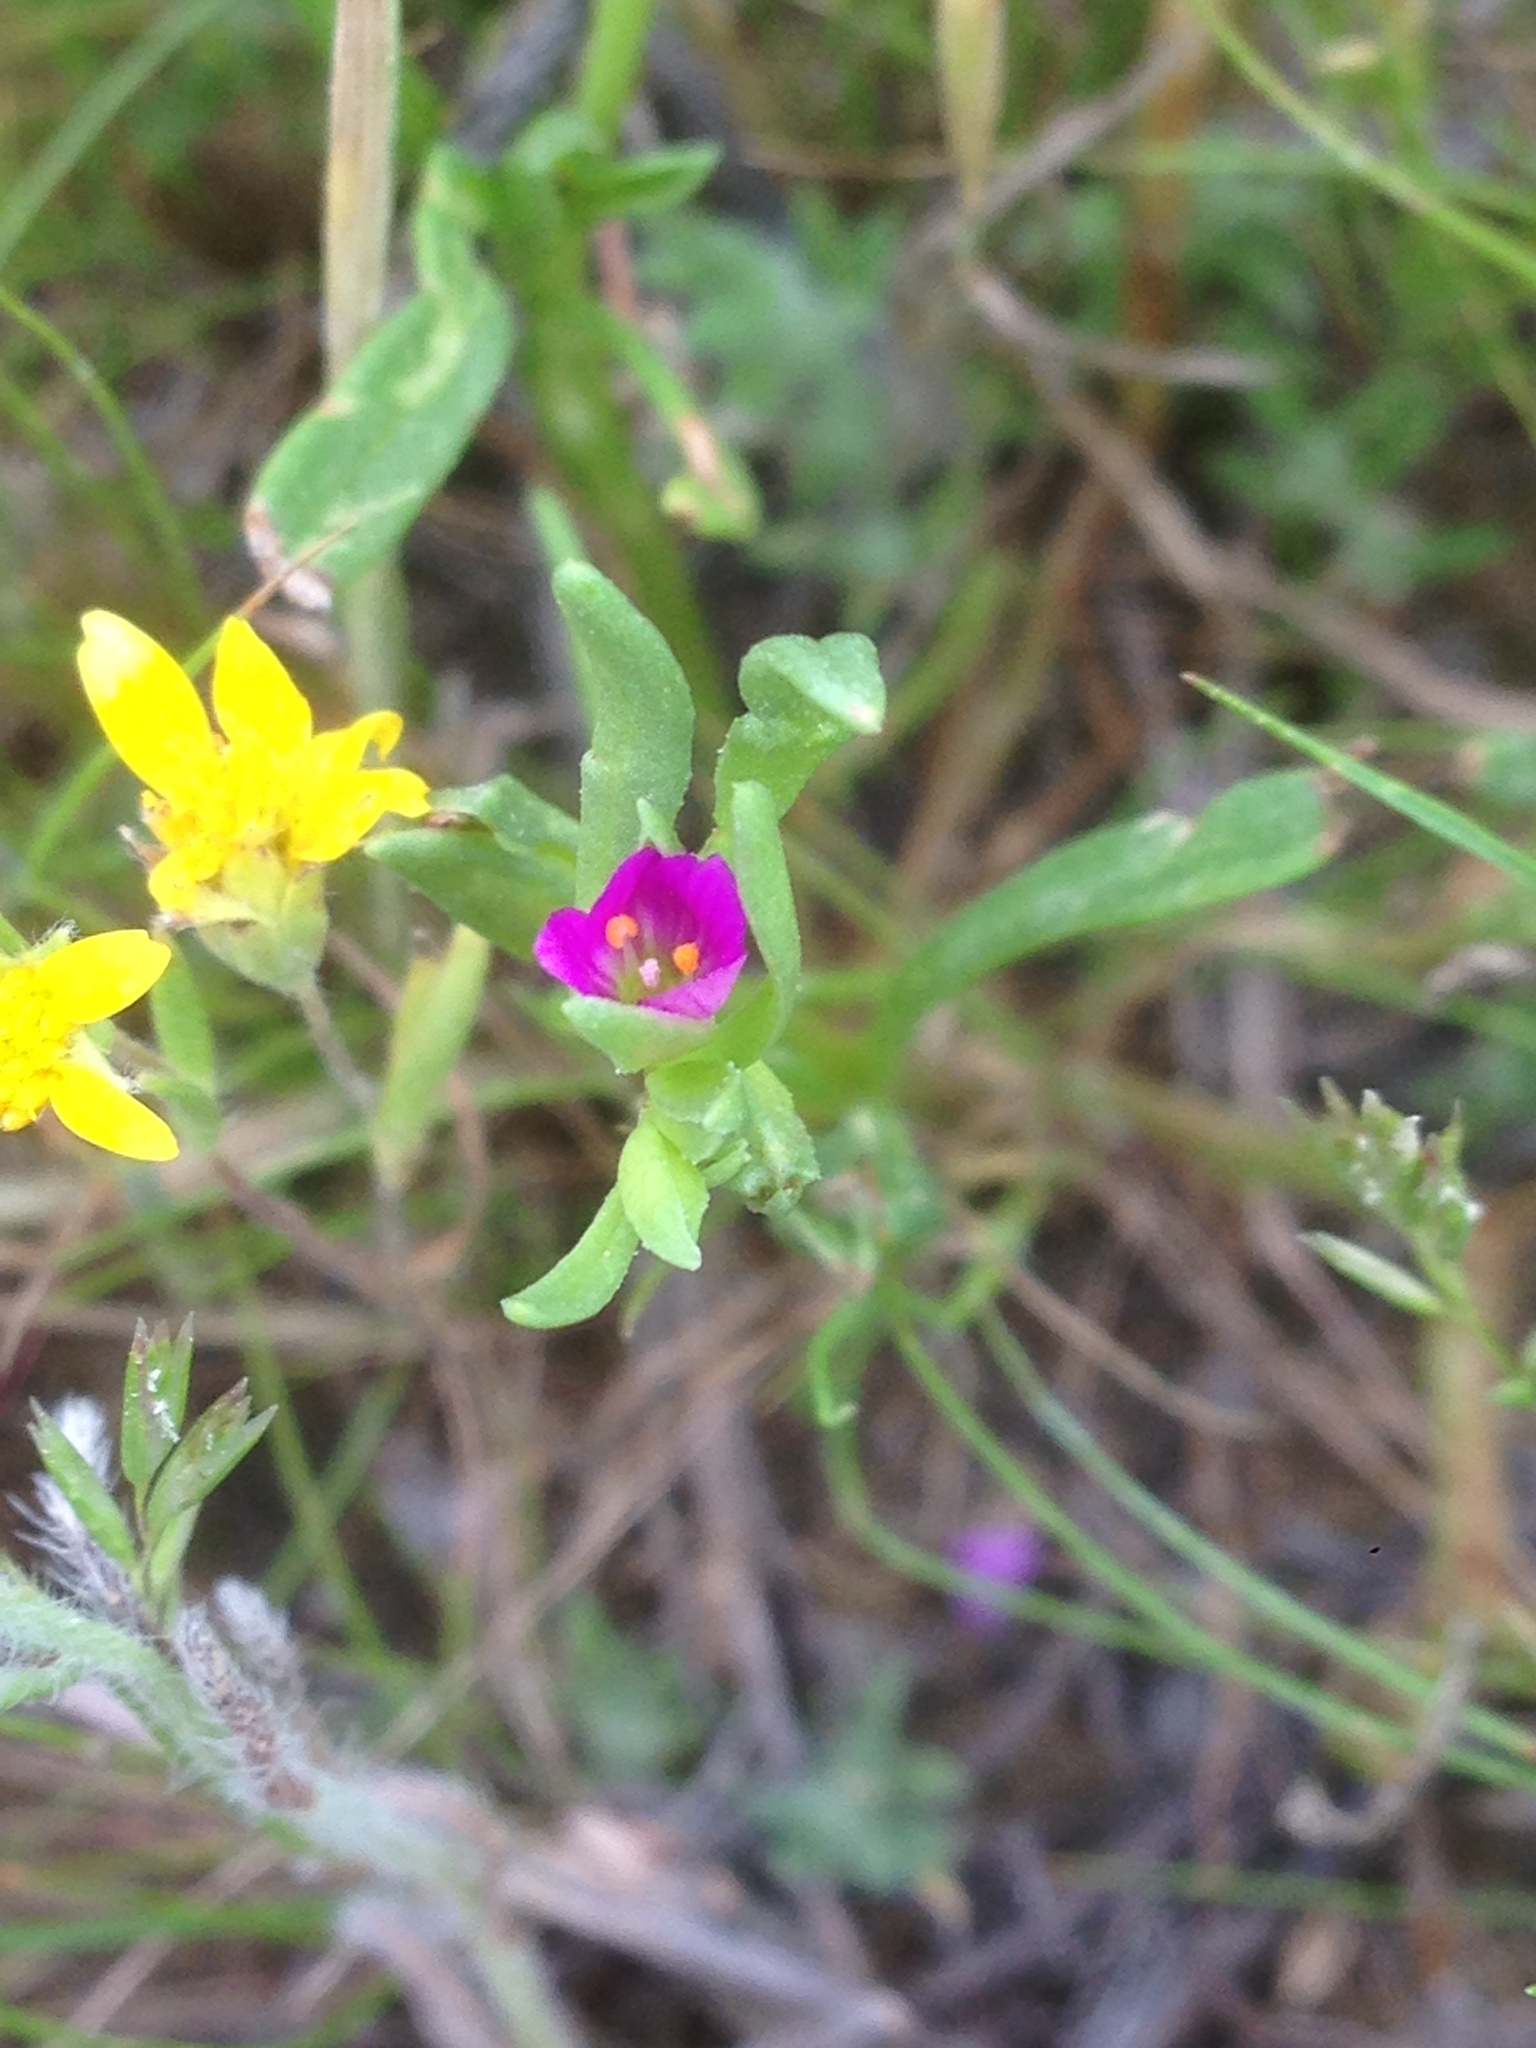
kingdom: Plantae
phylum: Tracheophyta
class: Magnoliopsida
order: Caryophyllales
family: Montiaceae
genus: Calandrinia
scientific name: Calandrinia menziesii
